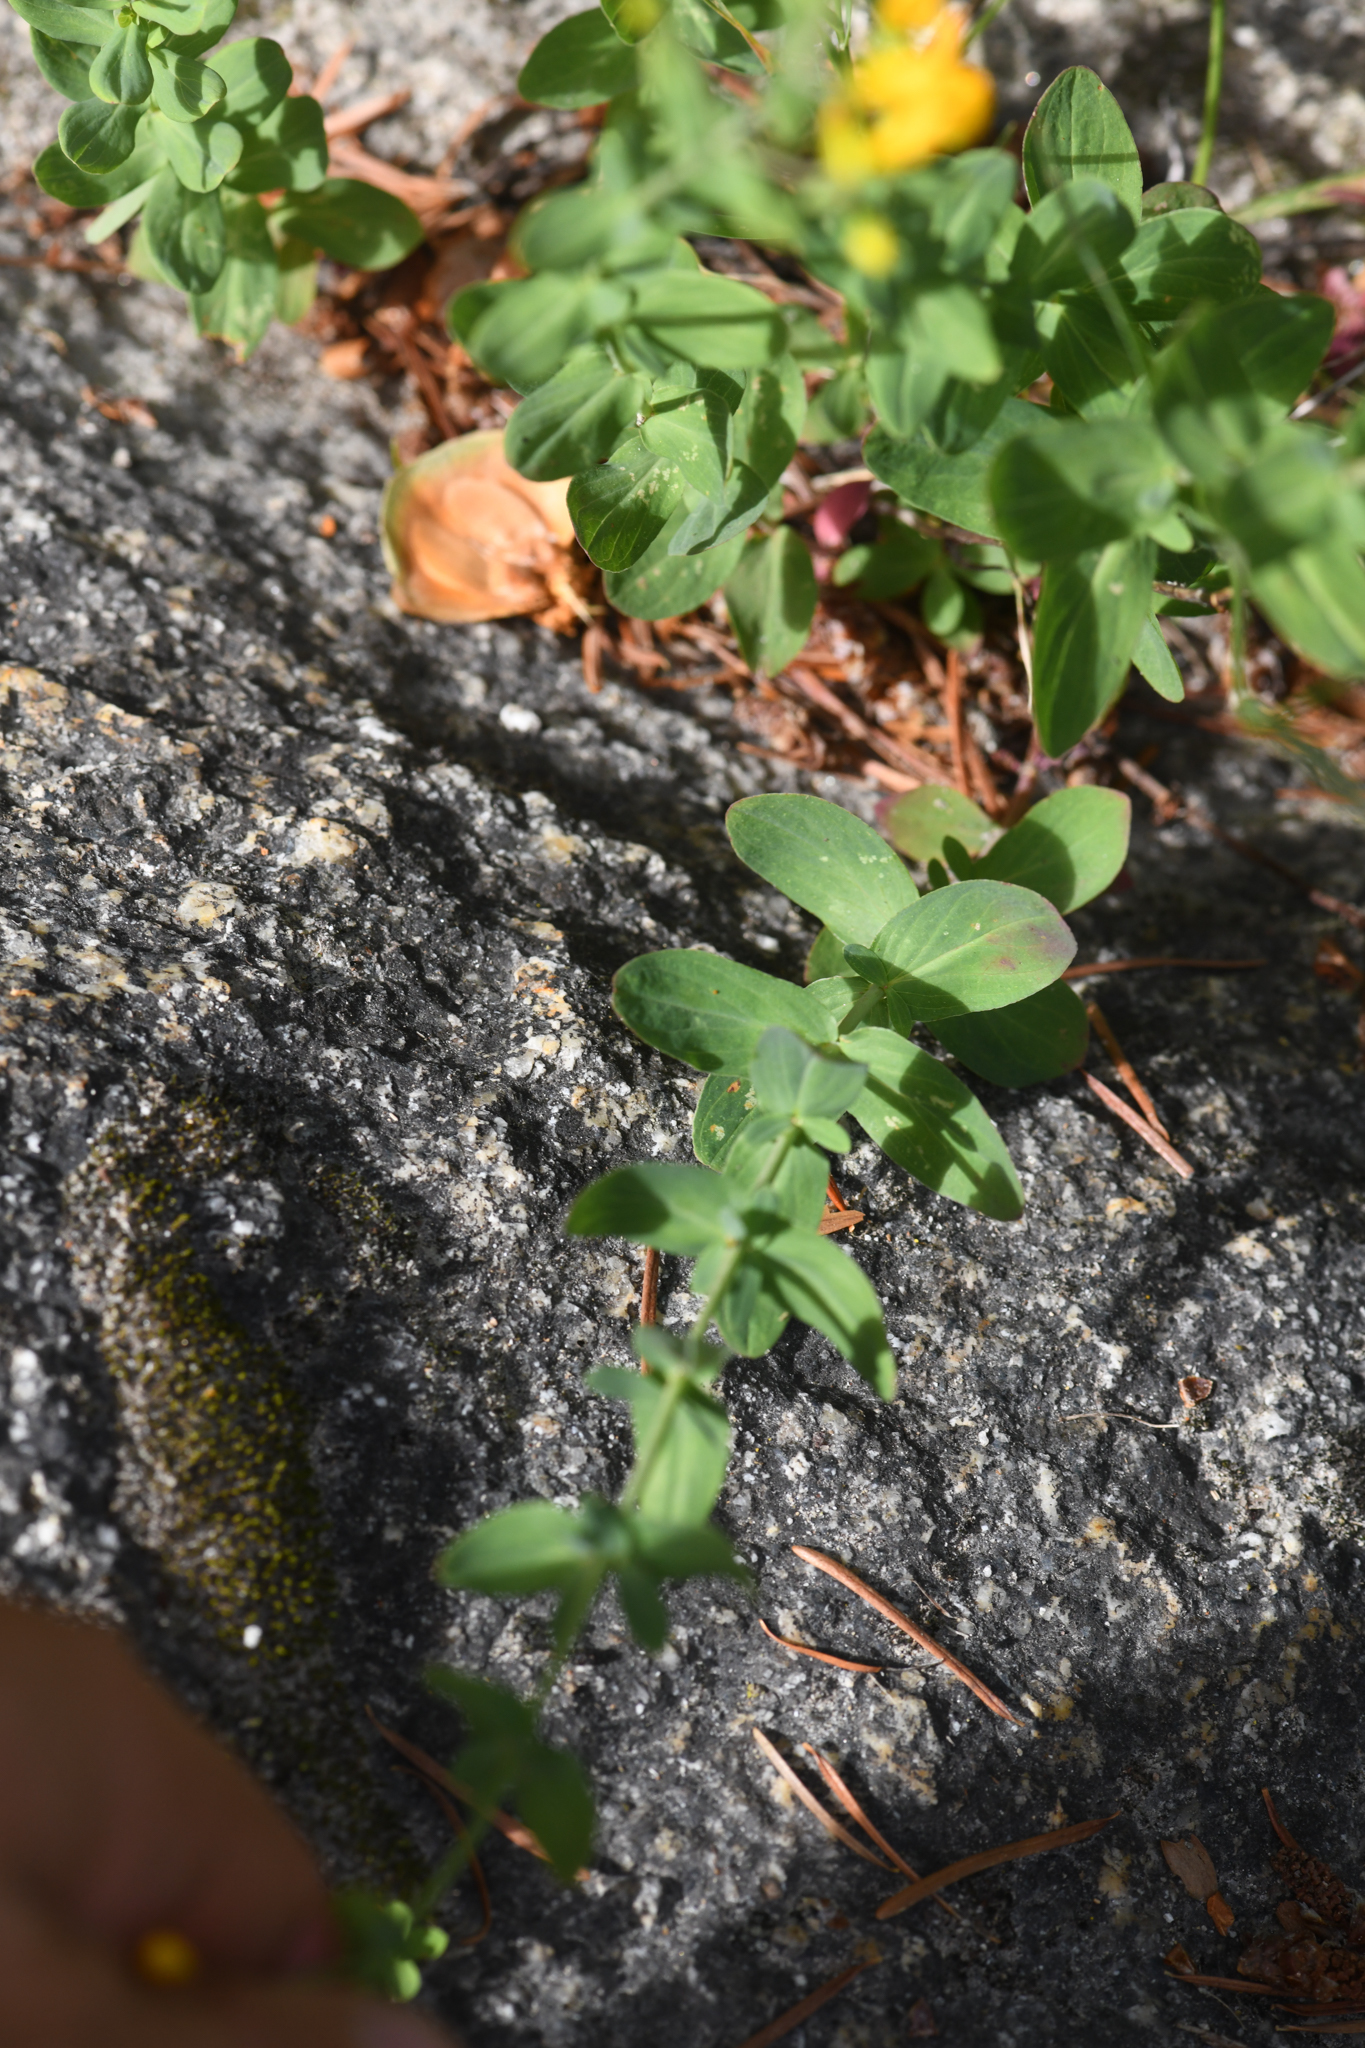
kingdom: Plantae
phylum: Tracheophyta
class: Magnoliopsida
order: Malpighiales
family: Hypericaceae
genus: Hypericum
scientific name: Hypericum scouleri
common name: Scouler's st. john's-wort
